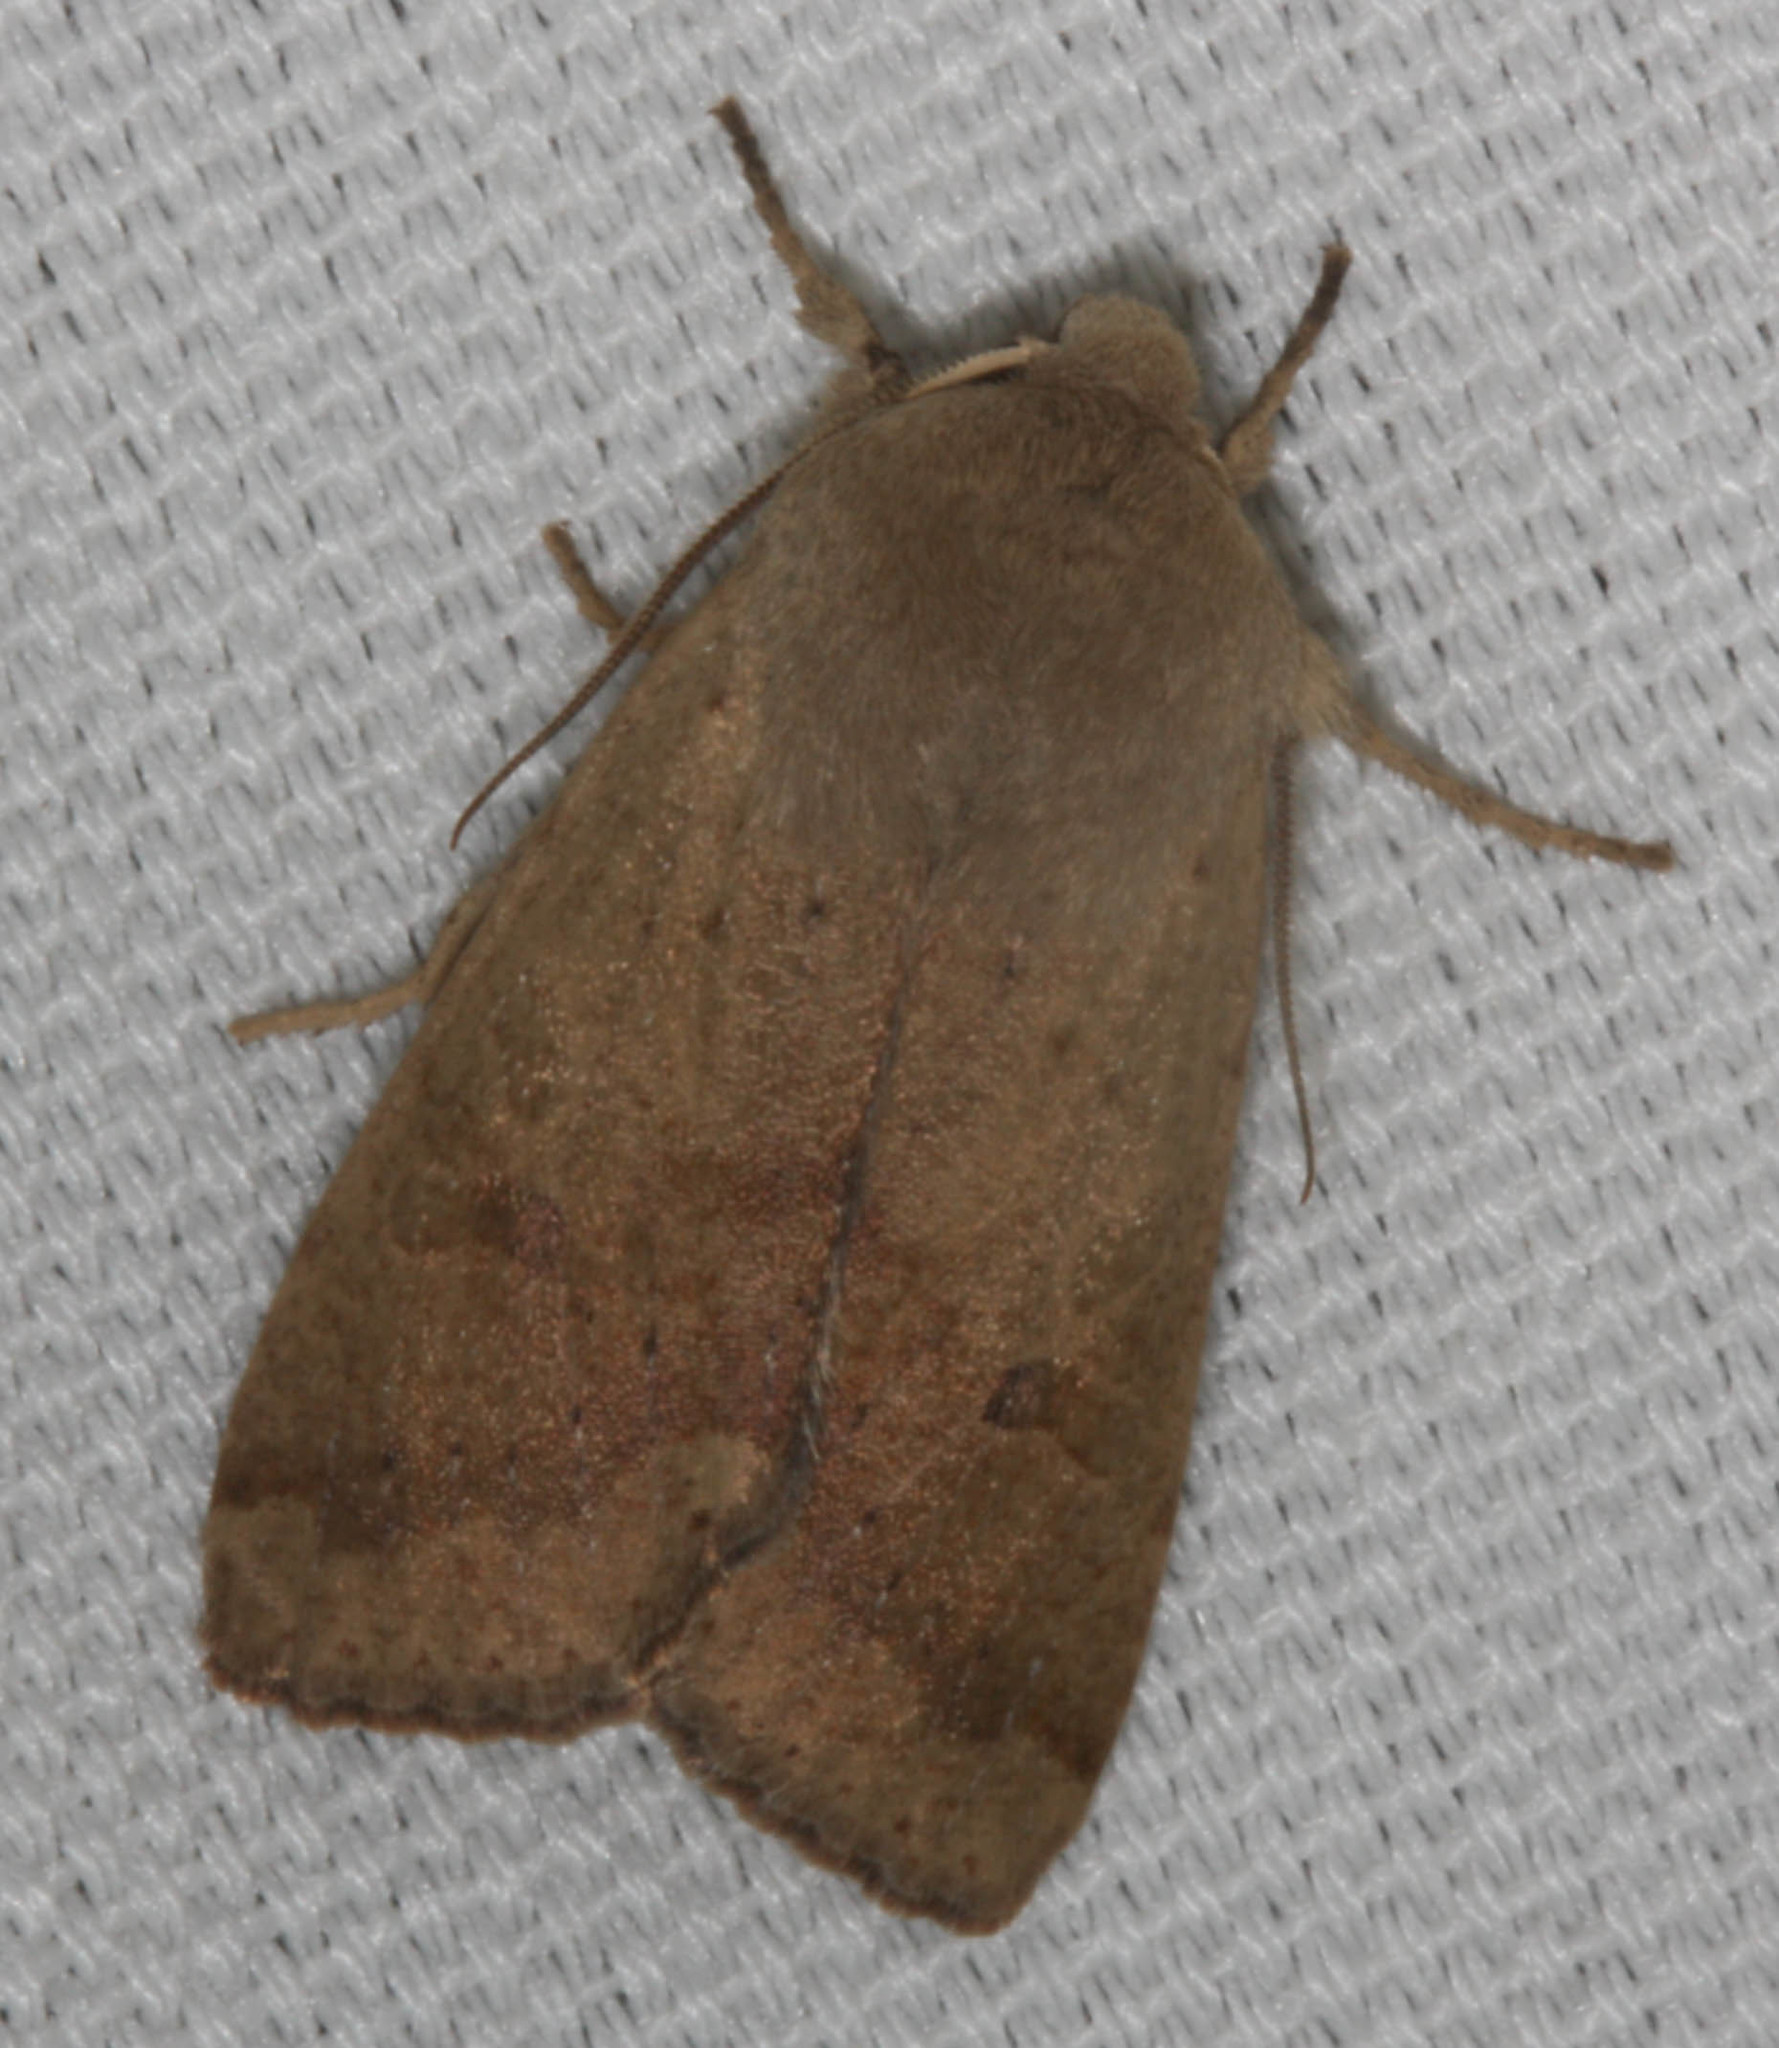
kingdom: Animalia
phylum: Arthropoda
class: Insecta
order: Lepidoptera
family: Noctuidae
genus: Orthosia
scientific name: Orthosia pacifica
